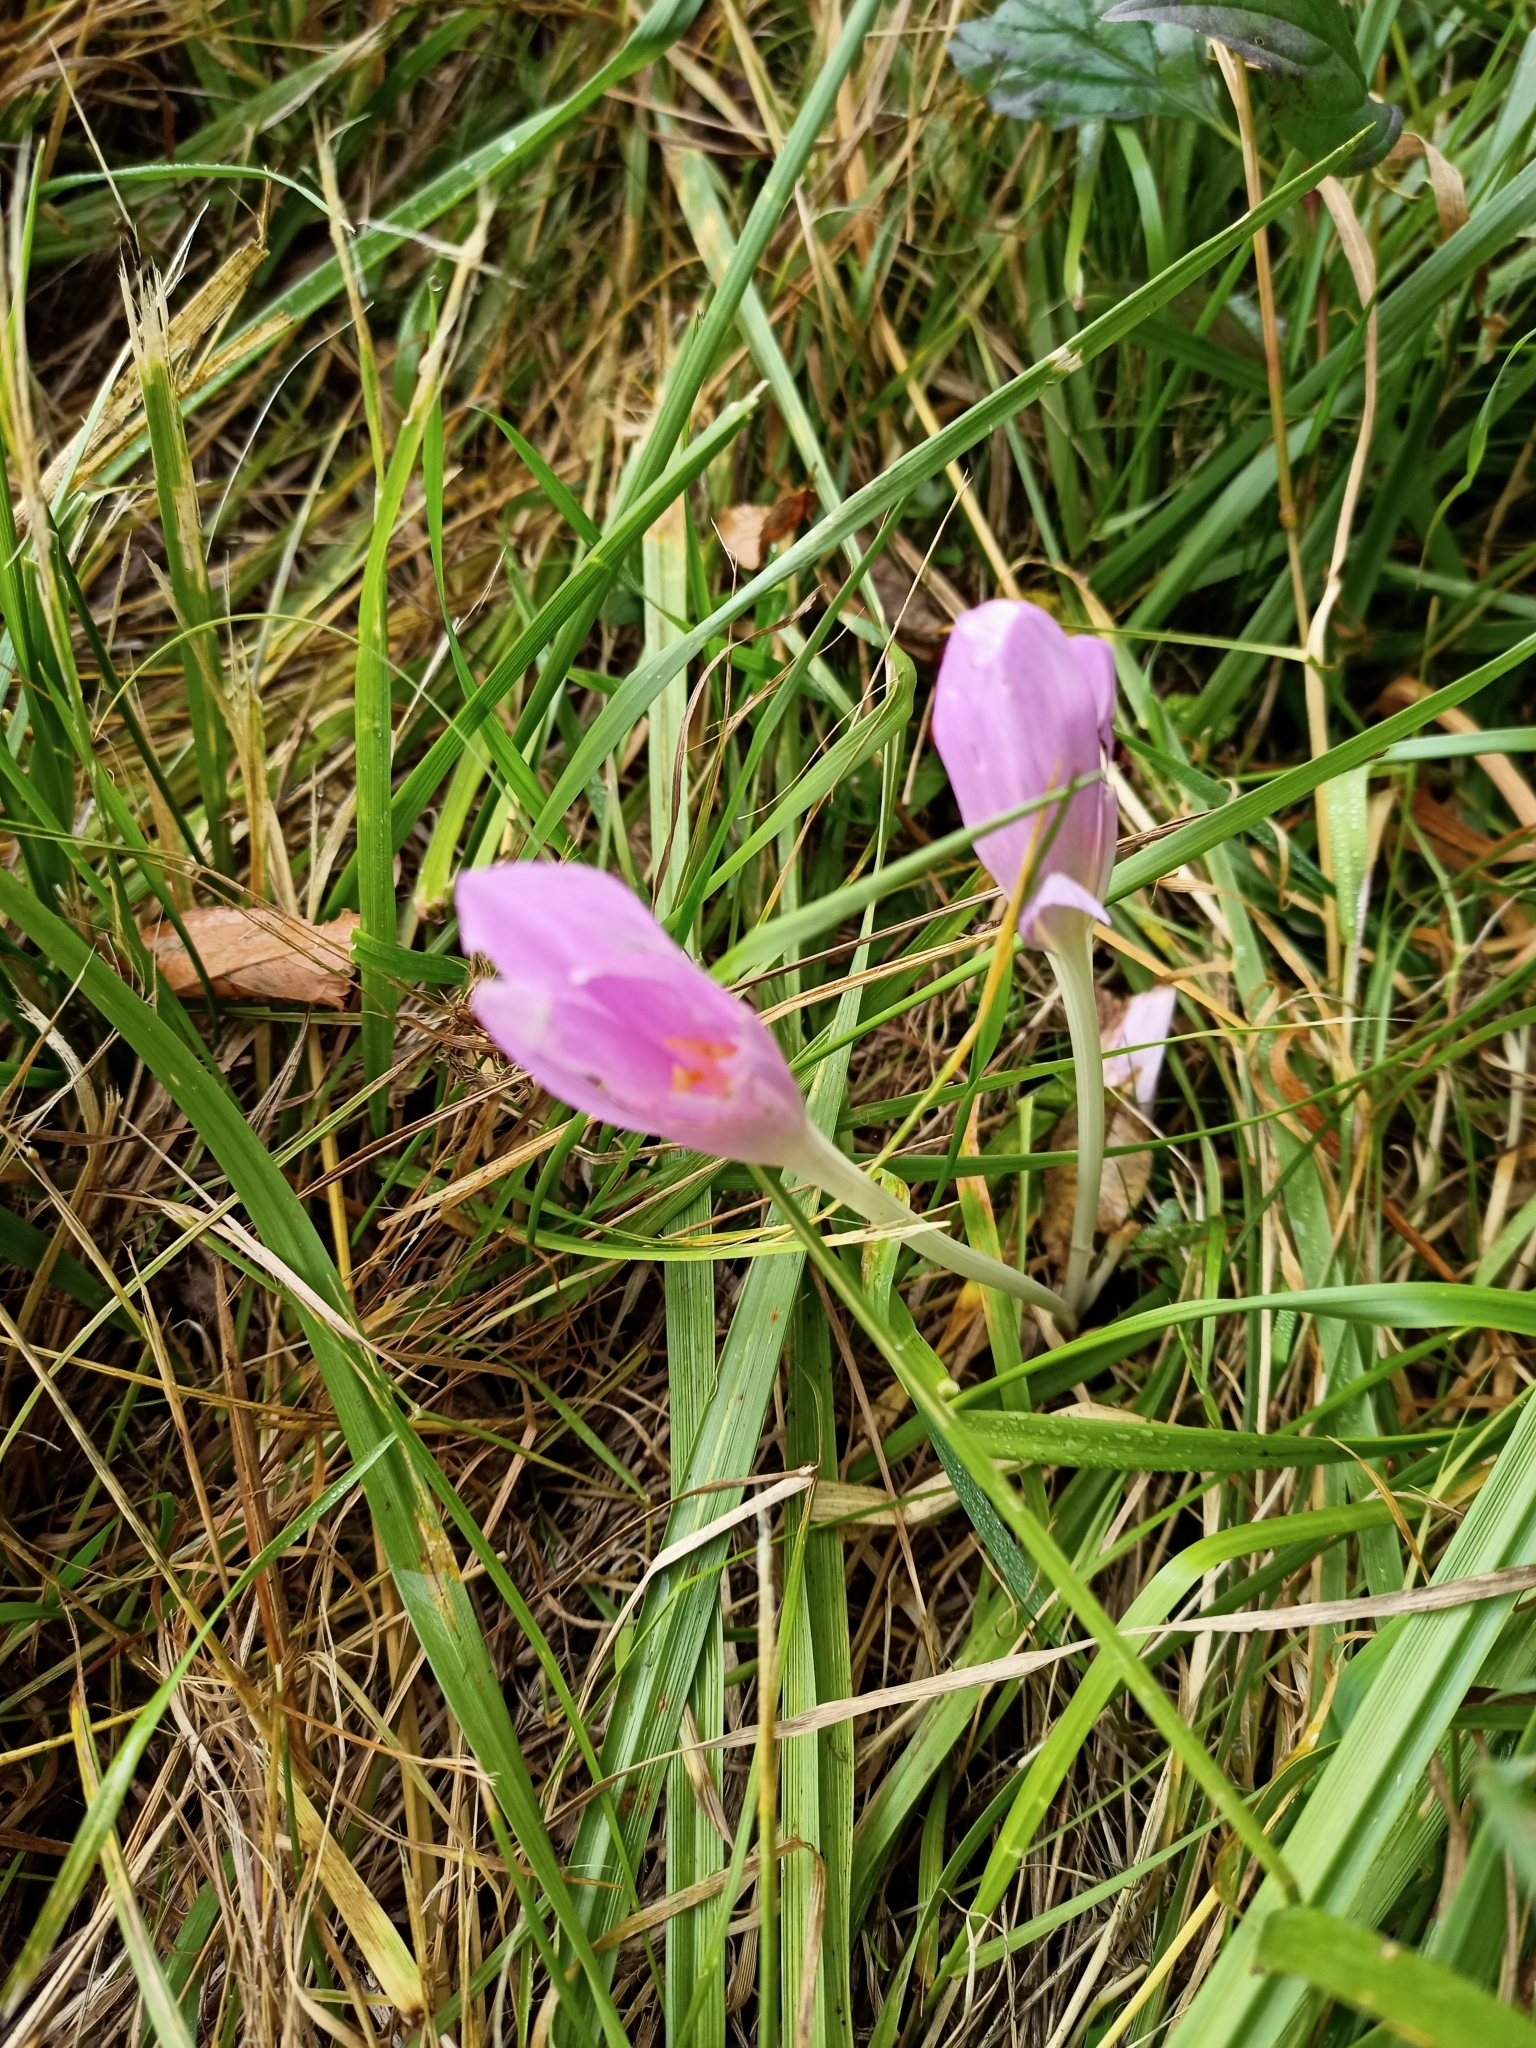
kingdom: Plantae
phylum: Tracheophyta
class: Liliopsida
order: Liliales
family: Colchicaceae
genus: Colchicum
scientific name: Colchicum autumnale
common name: Autumn crocus
